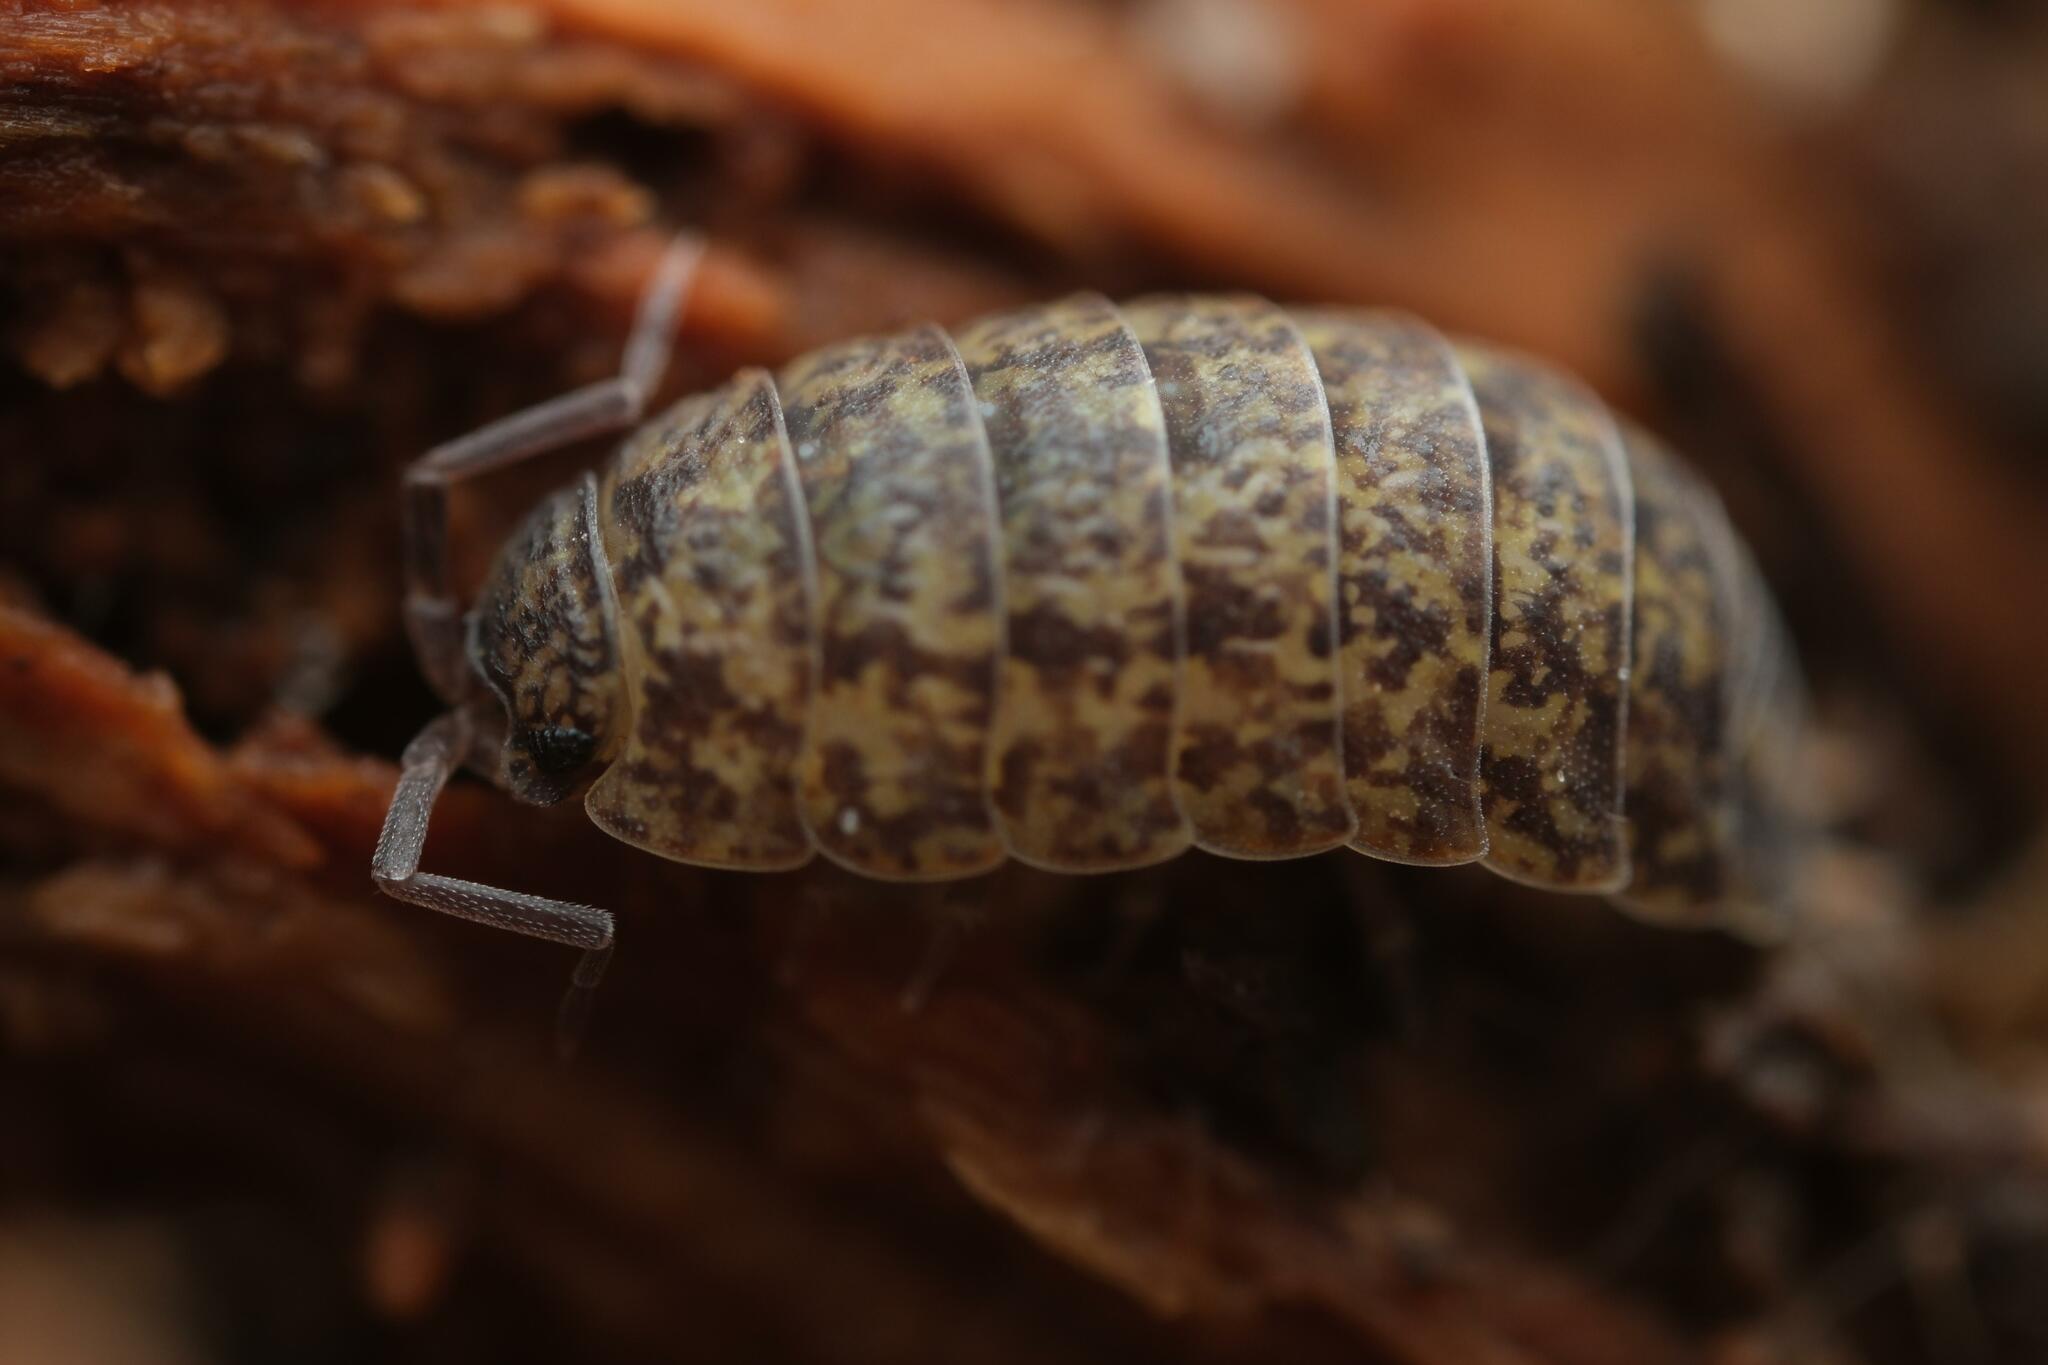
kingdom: Animalia
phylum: Arthropoda
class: Malacostraca
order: Isopoda
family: Porcellionidae
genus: Porcellio
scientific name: Porcellio scaber
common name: Common rough woodlouse
